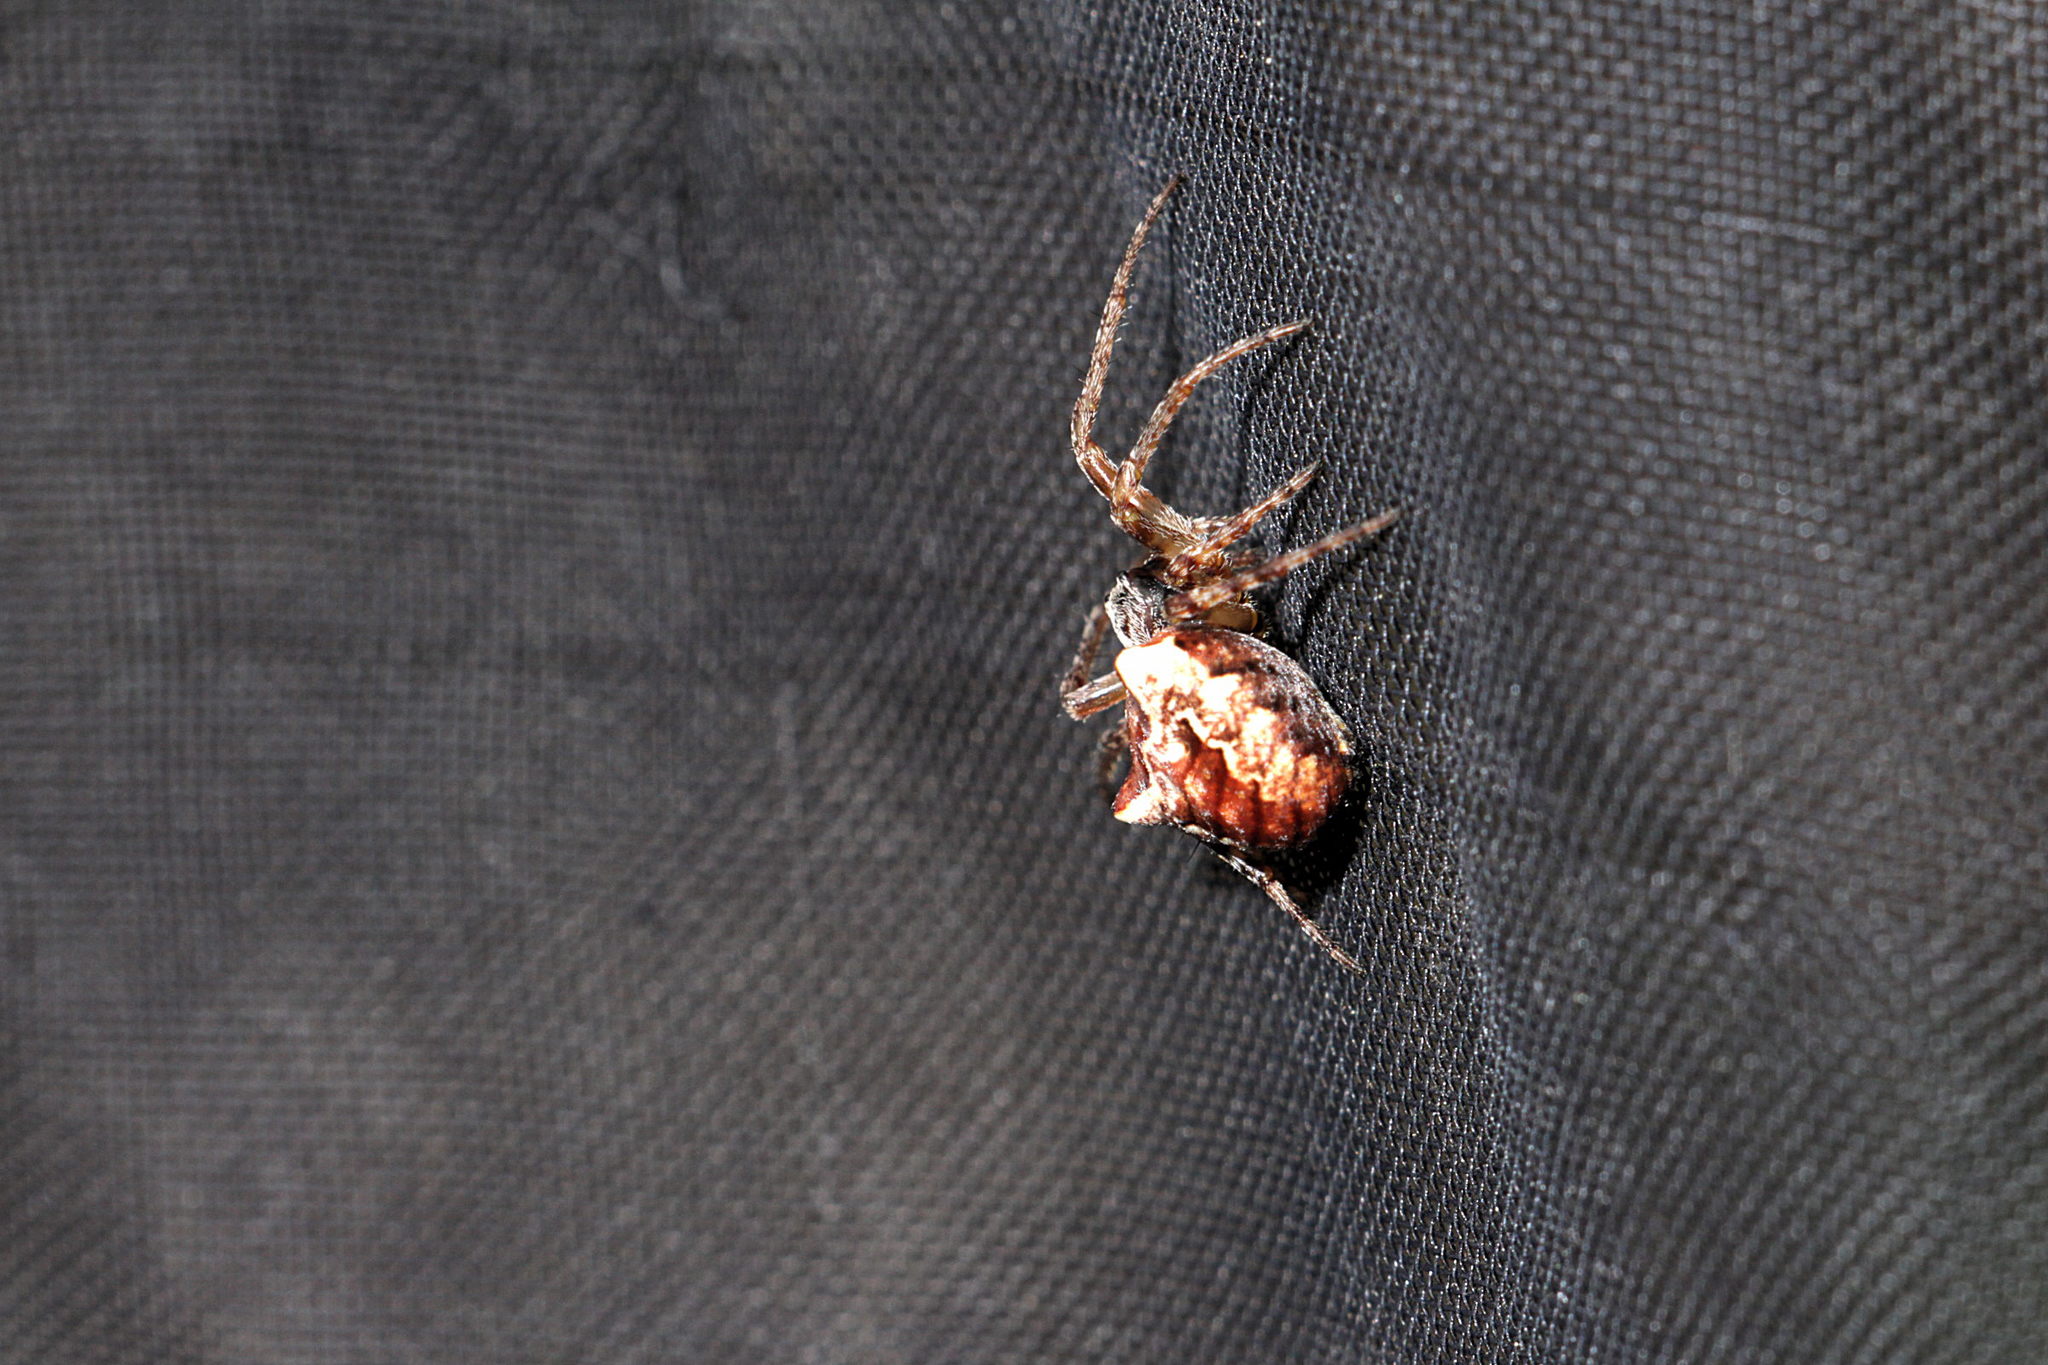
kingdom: Animalia
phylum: Arthropoda
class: Arachnida
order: Araneae
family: Araneidae
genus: Gibbaranea
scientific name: Gibbaranea bituberculata
